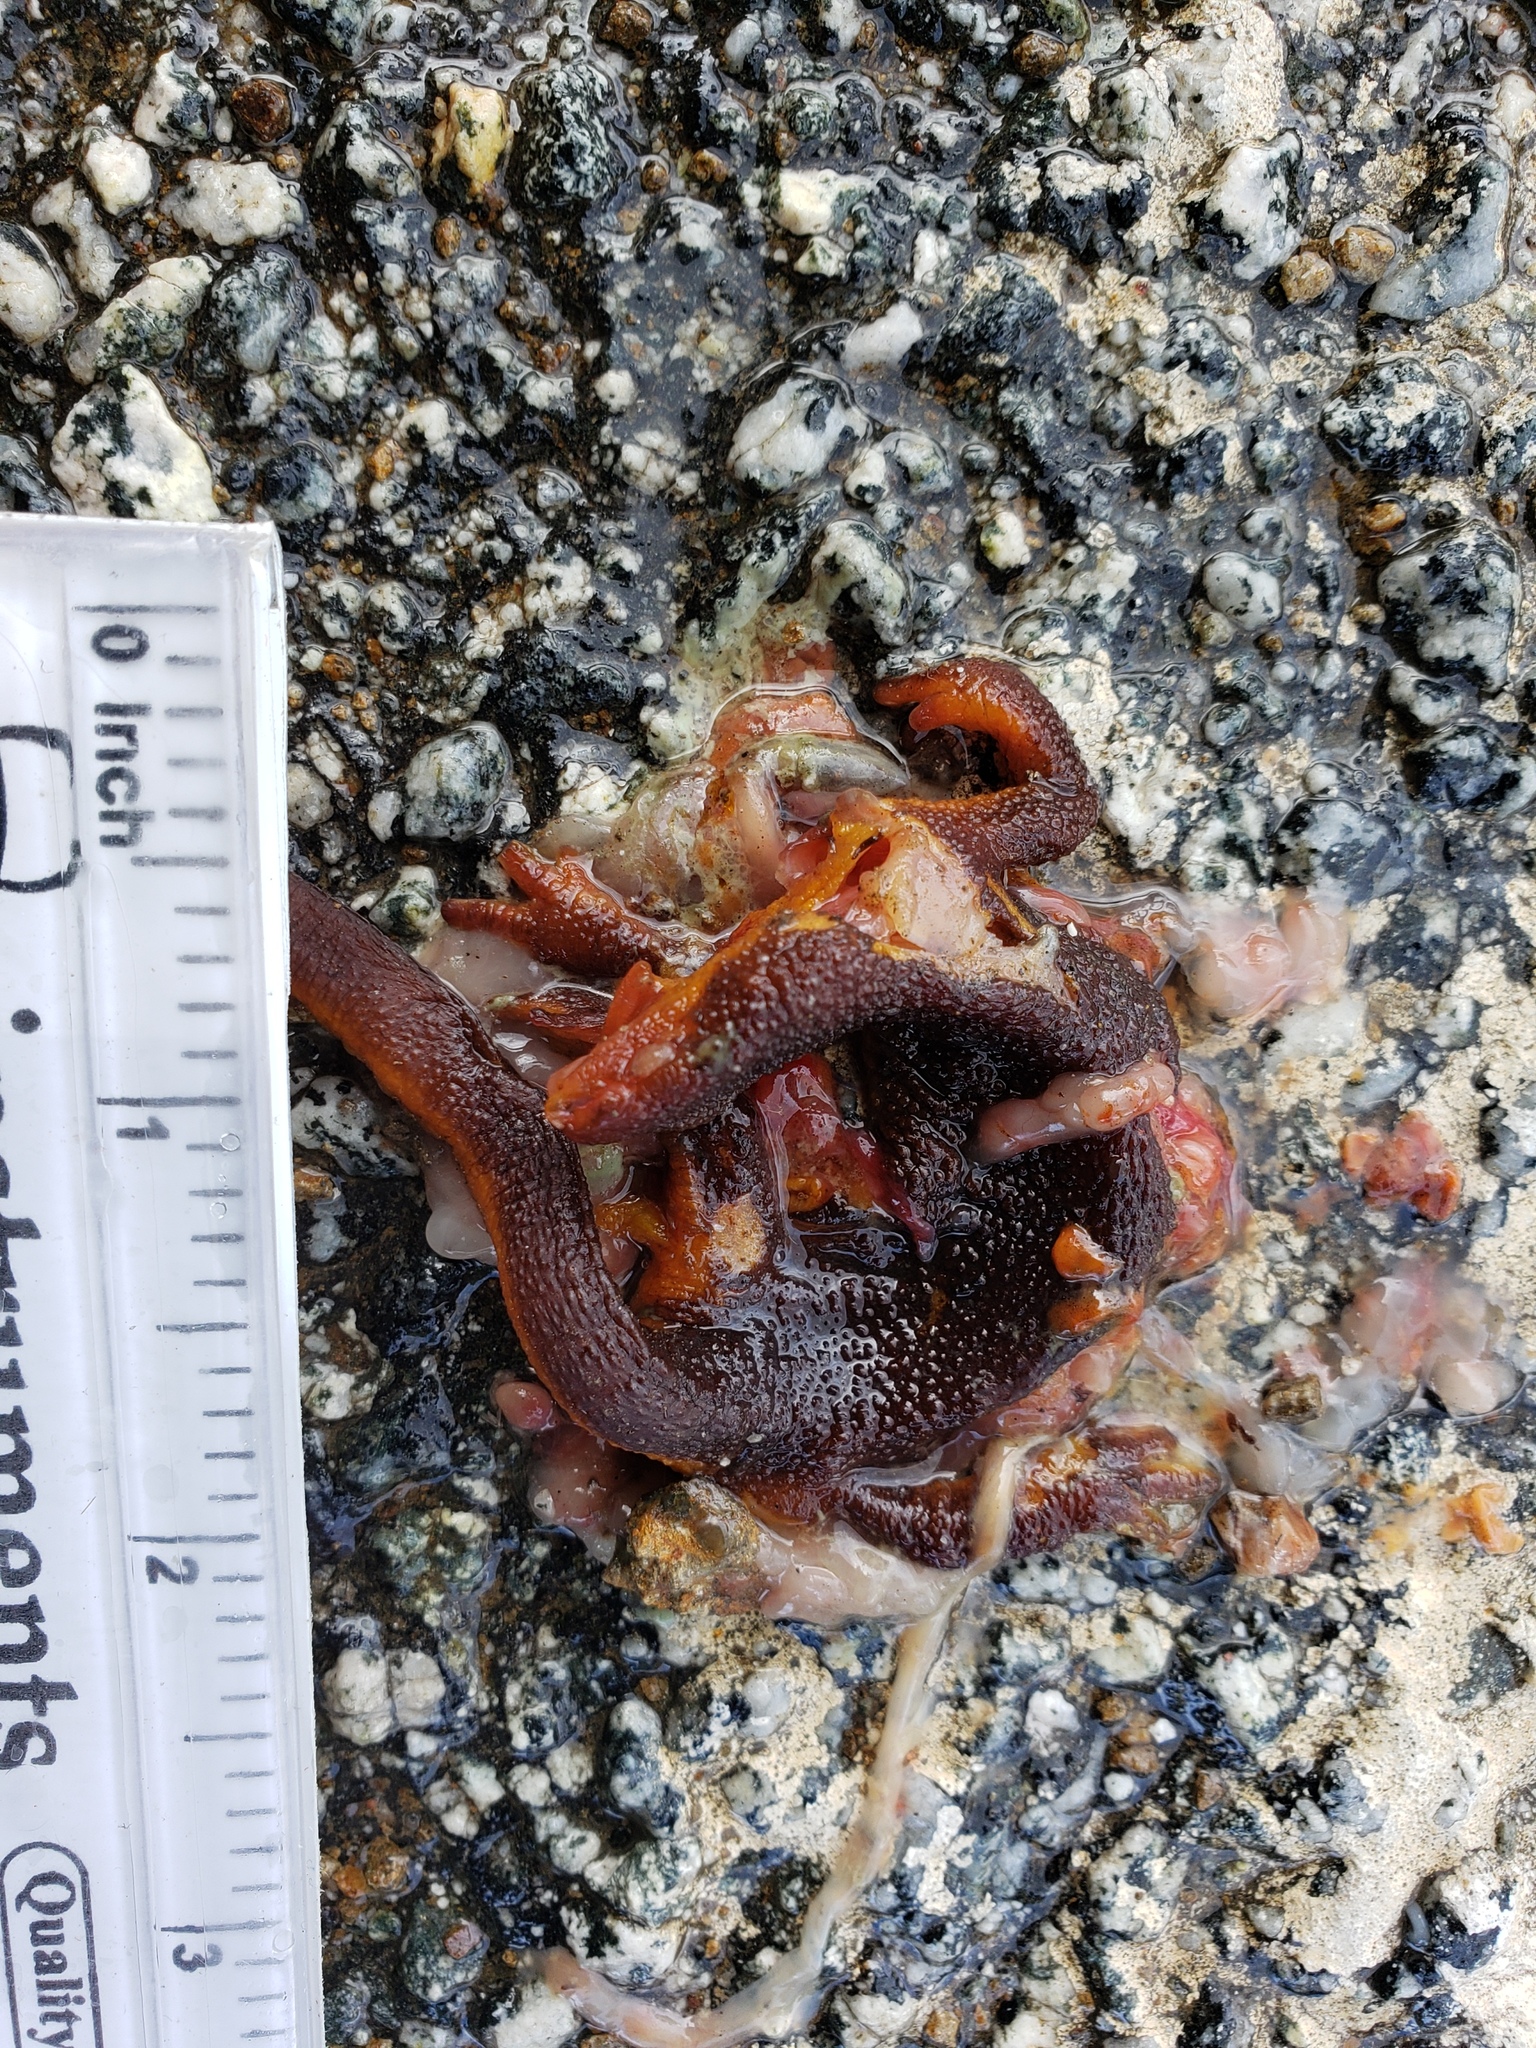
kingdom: Animalia
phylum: Chordata
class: Amphibia
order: Caudata
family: Salamandridae
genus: Taricha
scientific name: Taricha
